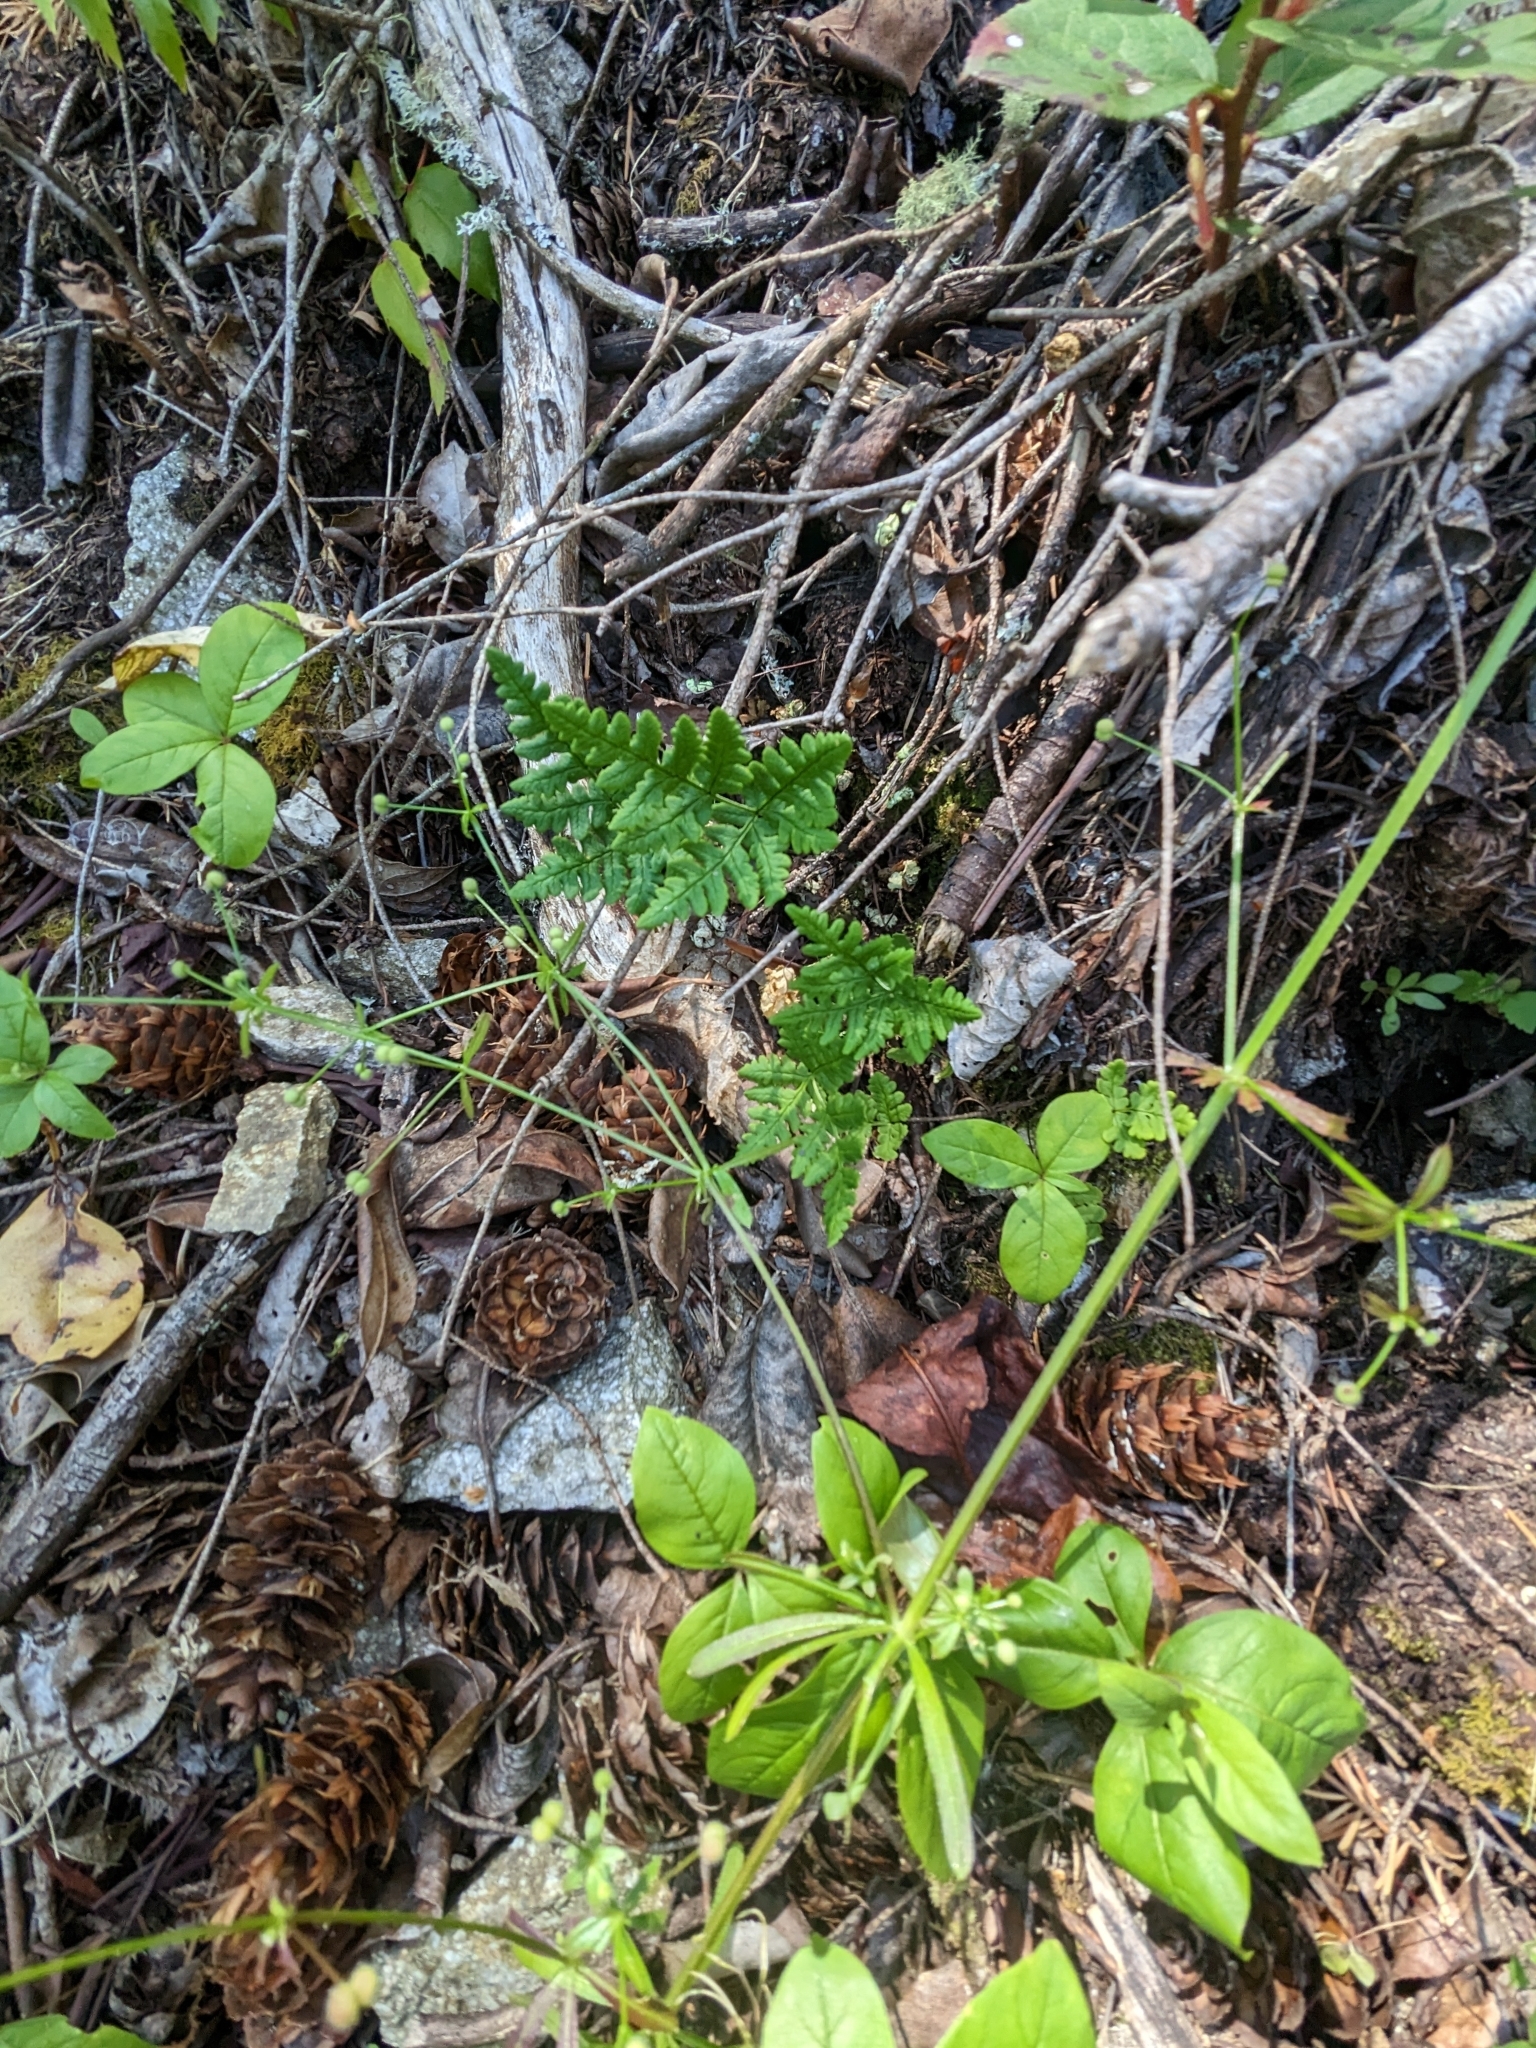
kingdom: Plantae
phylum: Tracheophyta
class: Polypodiopsida
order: Polypodiales
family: Pteridaceae
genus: Pentagramma
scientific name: Pentagramma triangularis
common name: Gold fern
